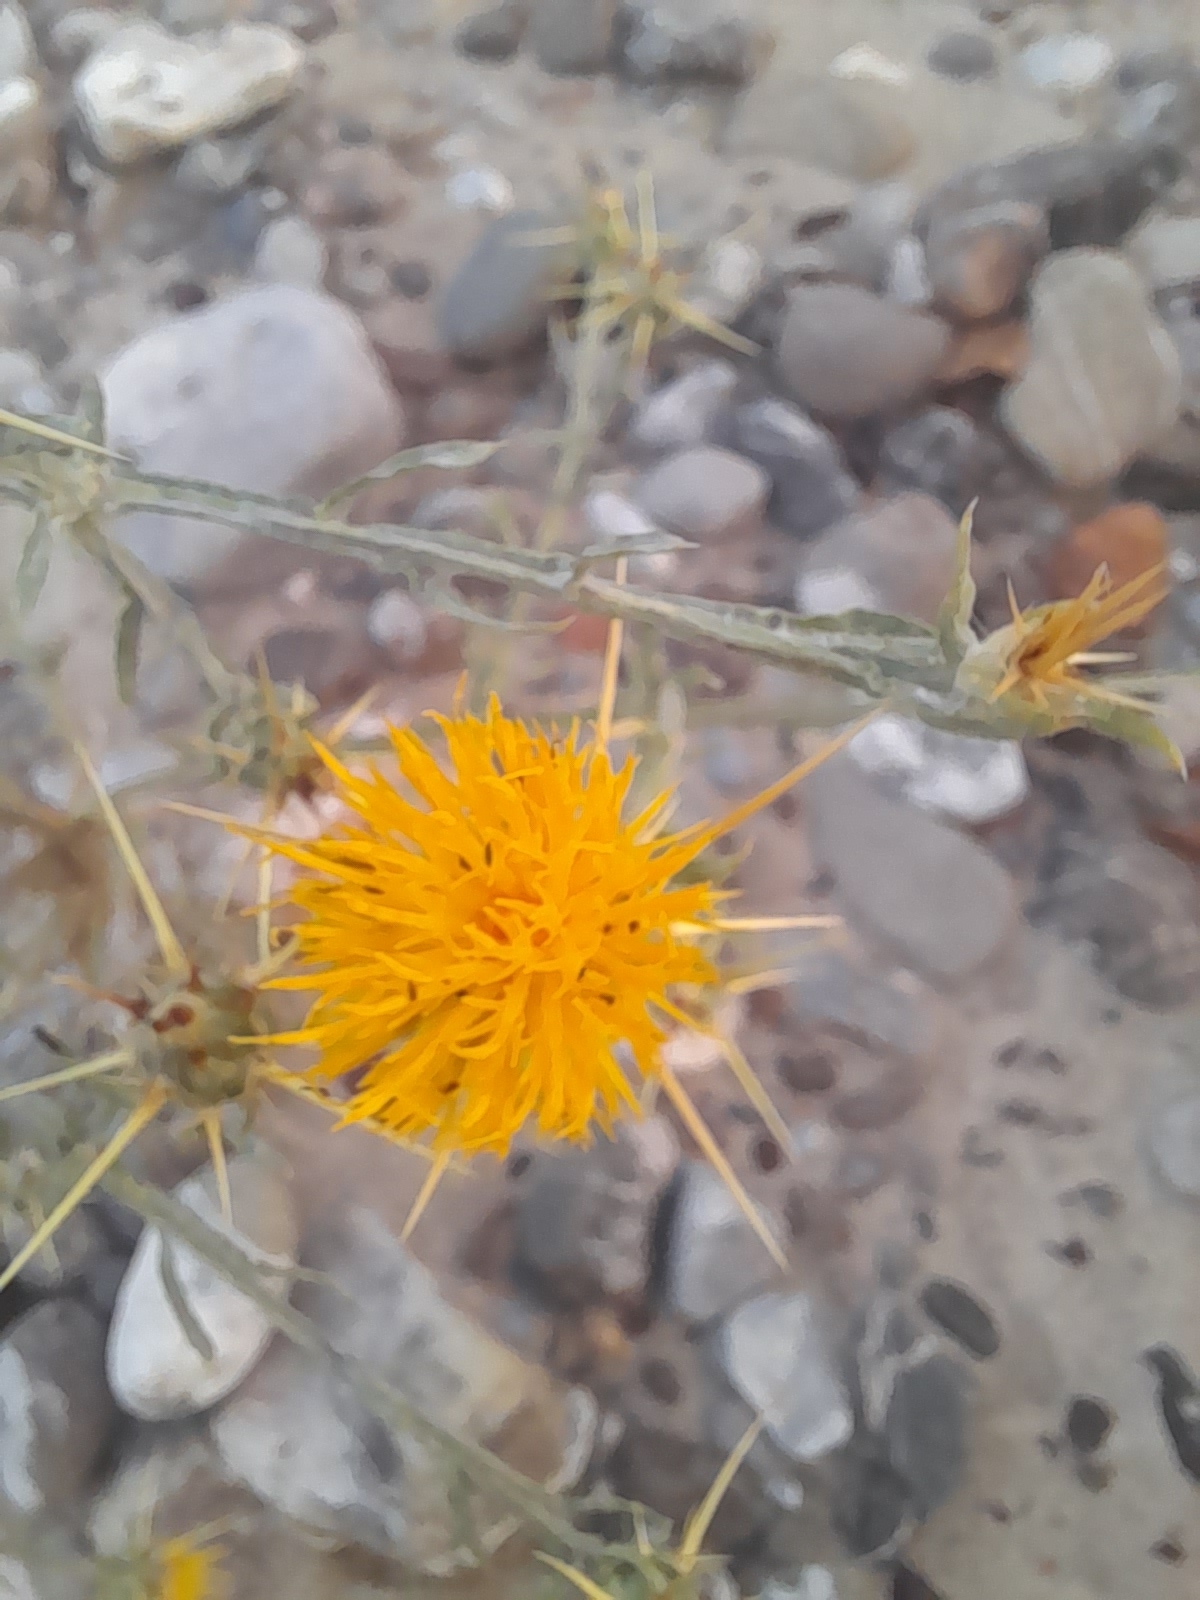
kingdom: Plantae
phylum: Tracheophyta
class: Magnoliopsida
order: Asterales
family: Asteraceae
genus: Centaurea
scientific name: Centaurea solstitialis
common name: Yellow star-thistle
